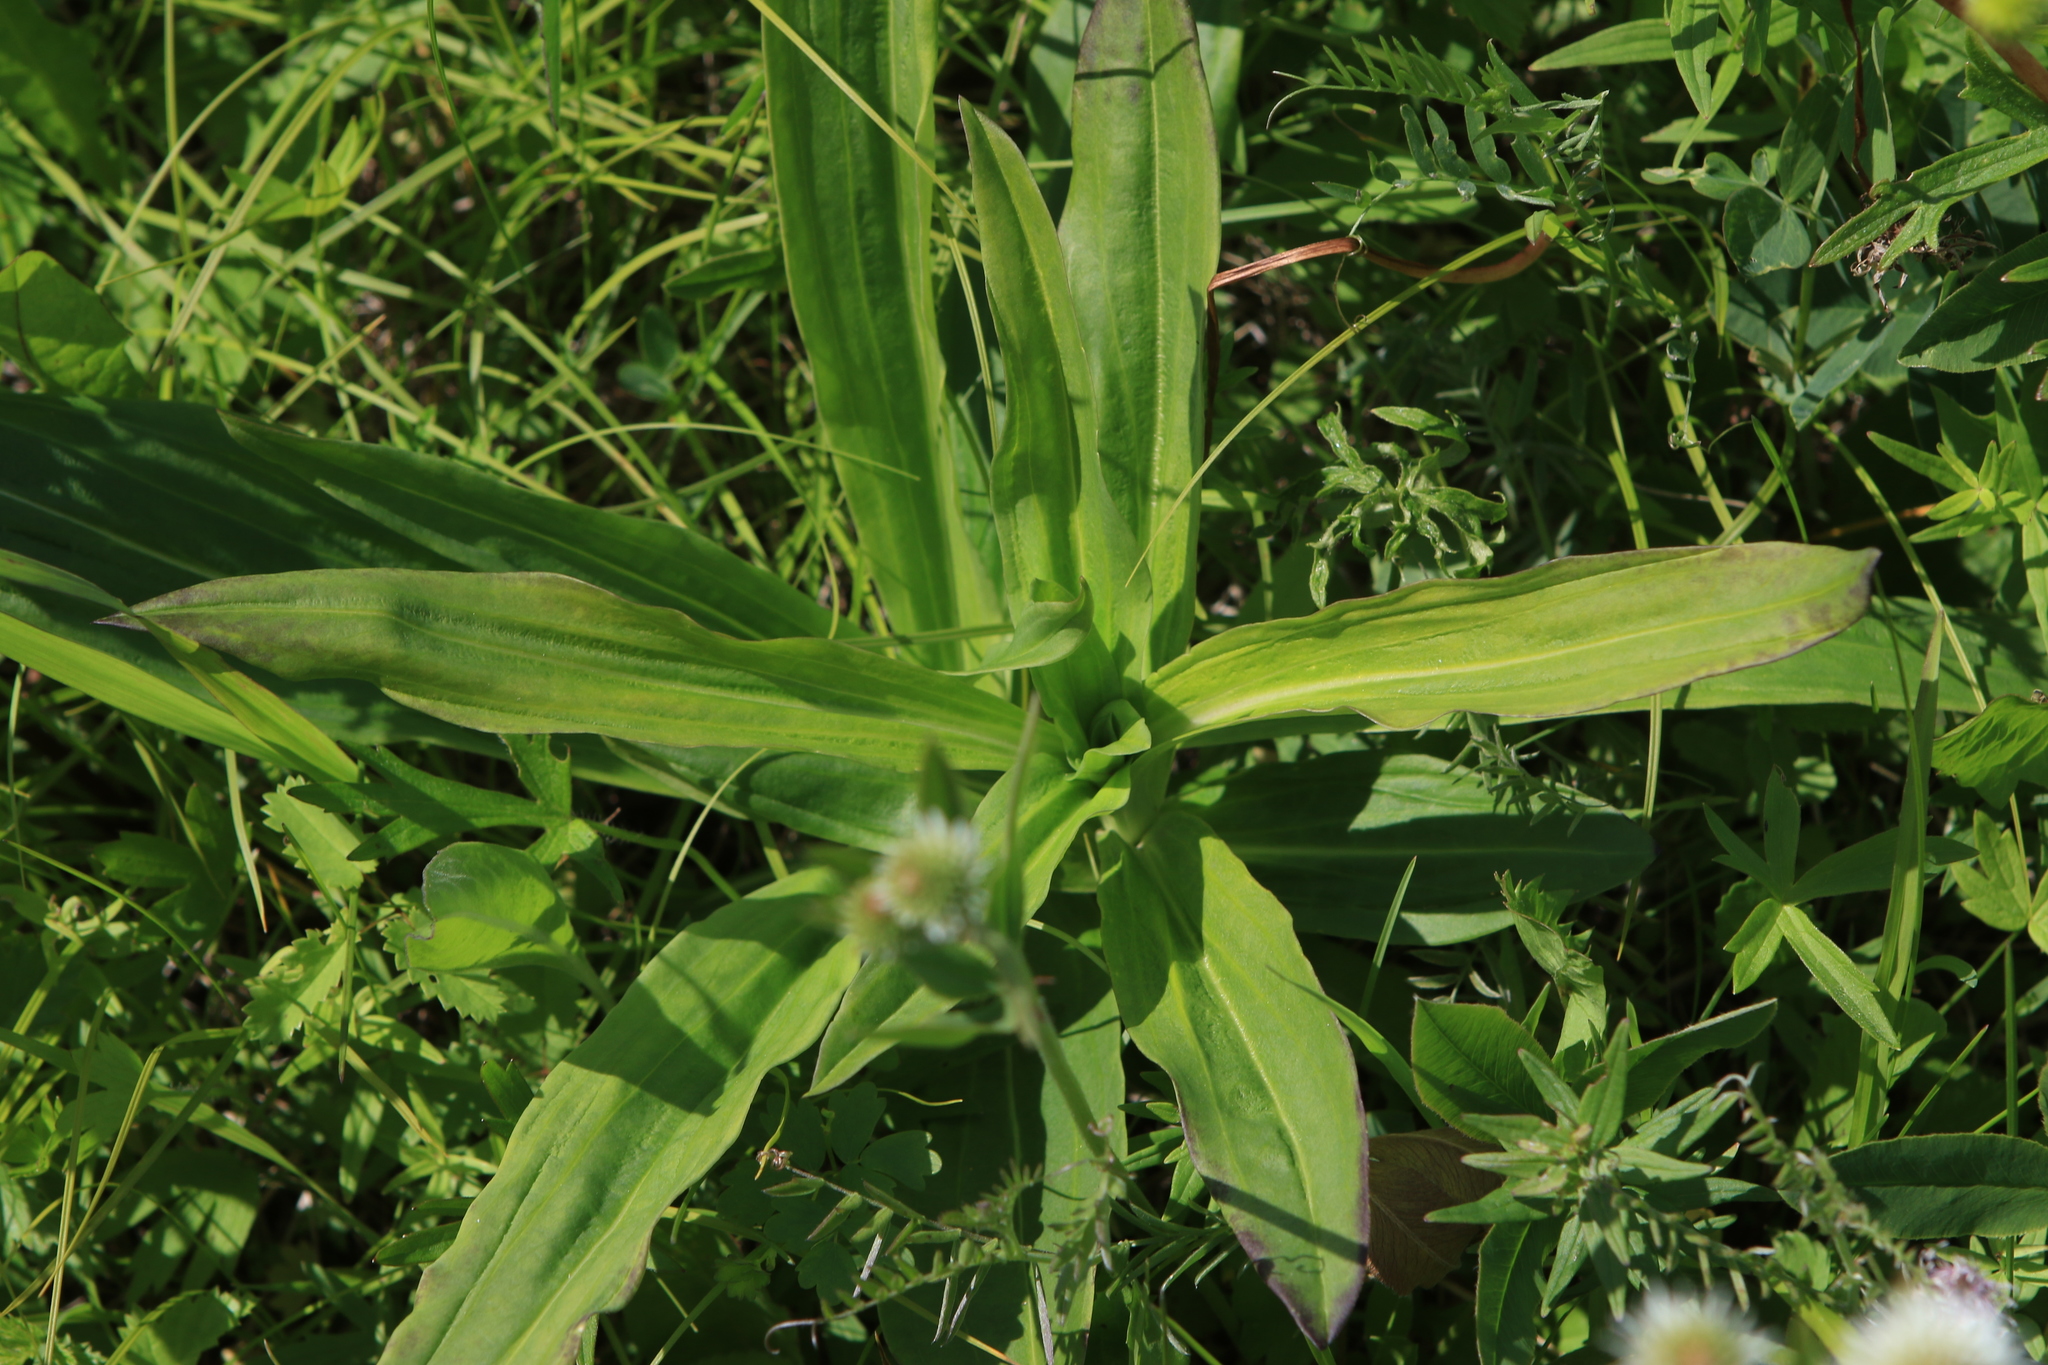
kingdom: Plantae
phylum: Tracheophyta
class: Magnoliopsida
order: Gentianales
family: Gentianaceae
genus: Gentiana
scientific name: Gentiana macrophylla
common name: Large-leaf gentian
